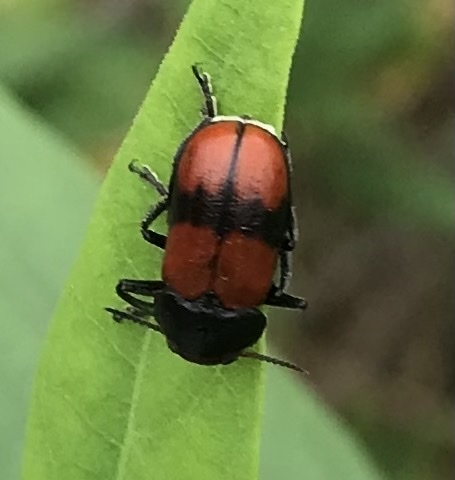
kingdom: Animalia
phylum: Arthropoda
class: Insecta
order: Coleoptera
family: Chrysomelidae
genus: Anomoea
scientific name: Anomoea rufifrons
